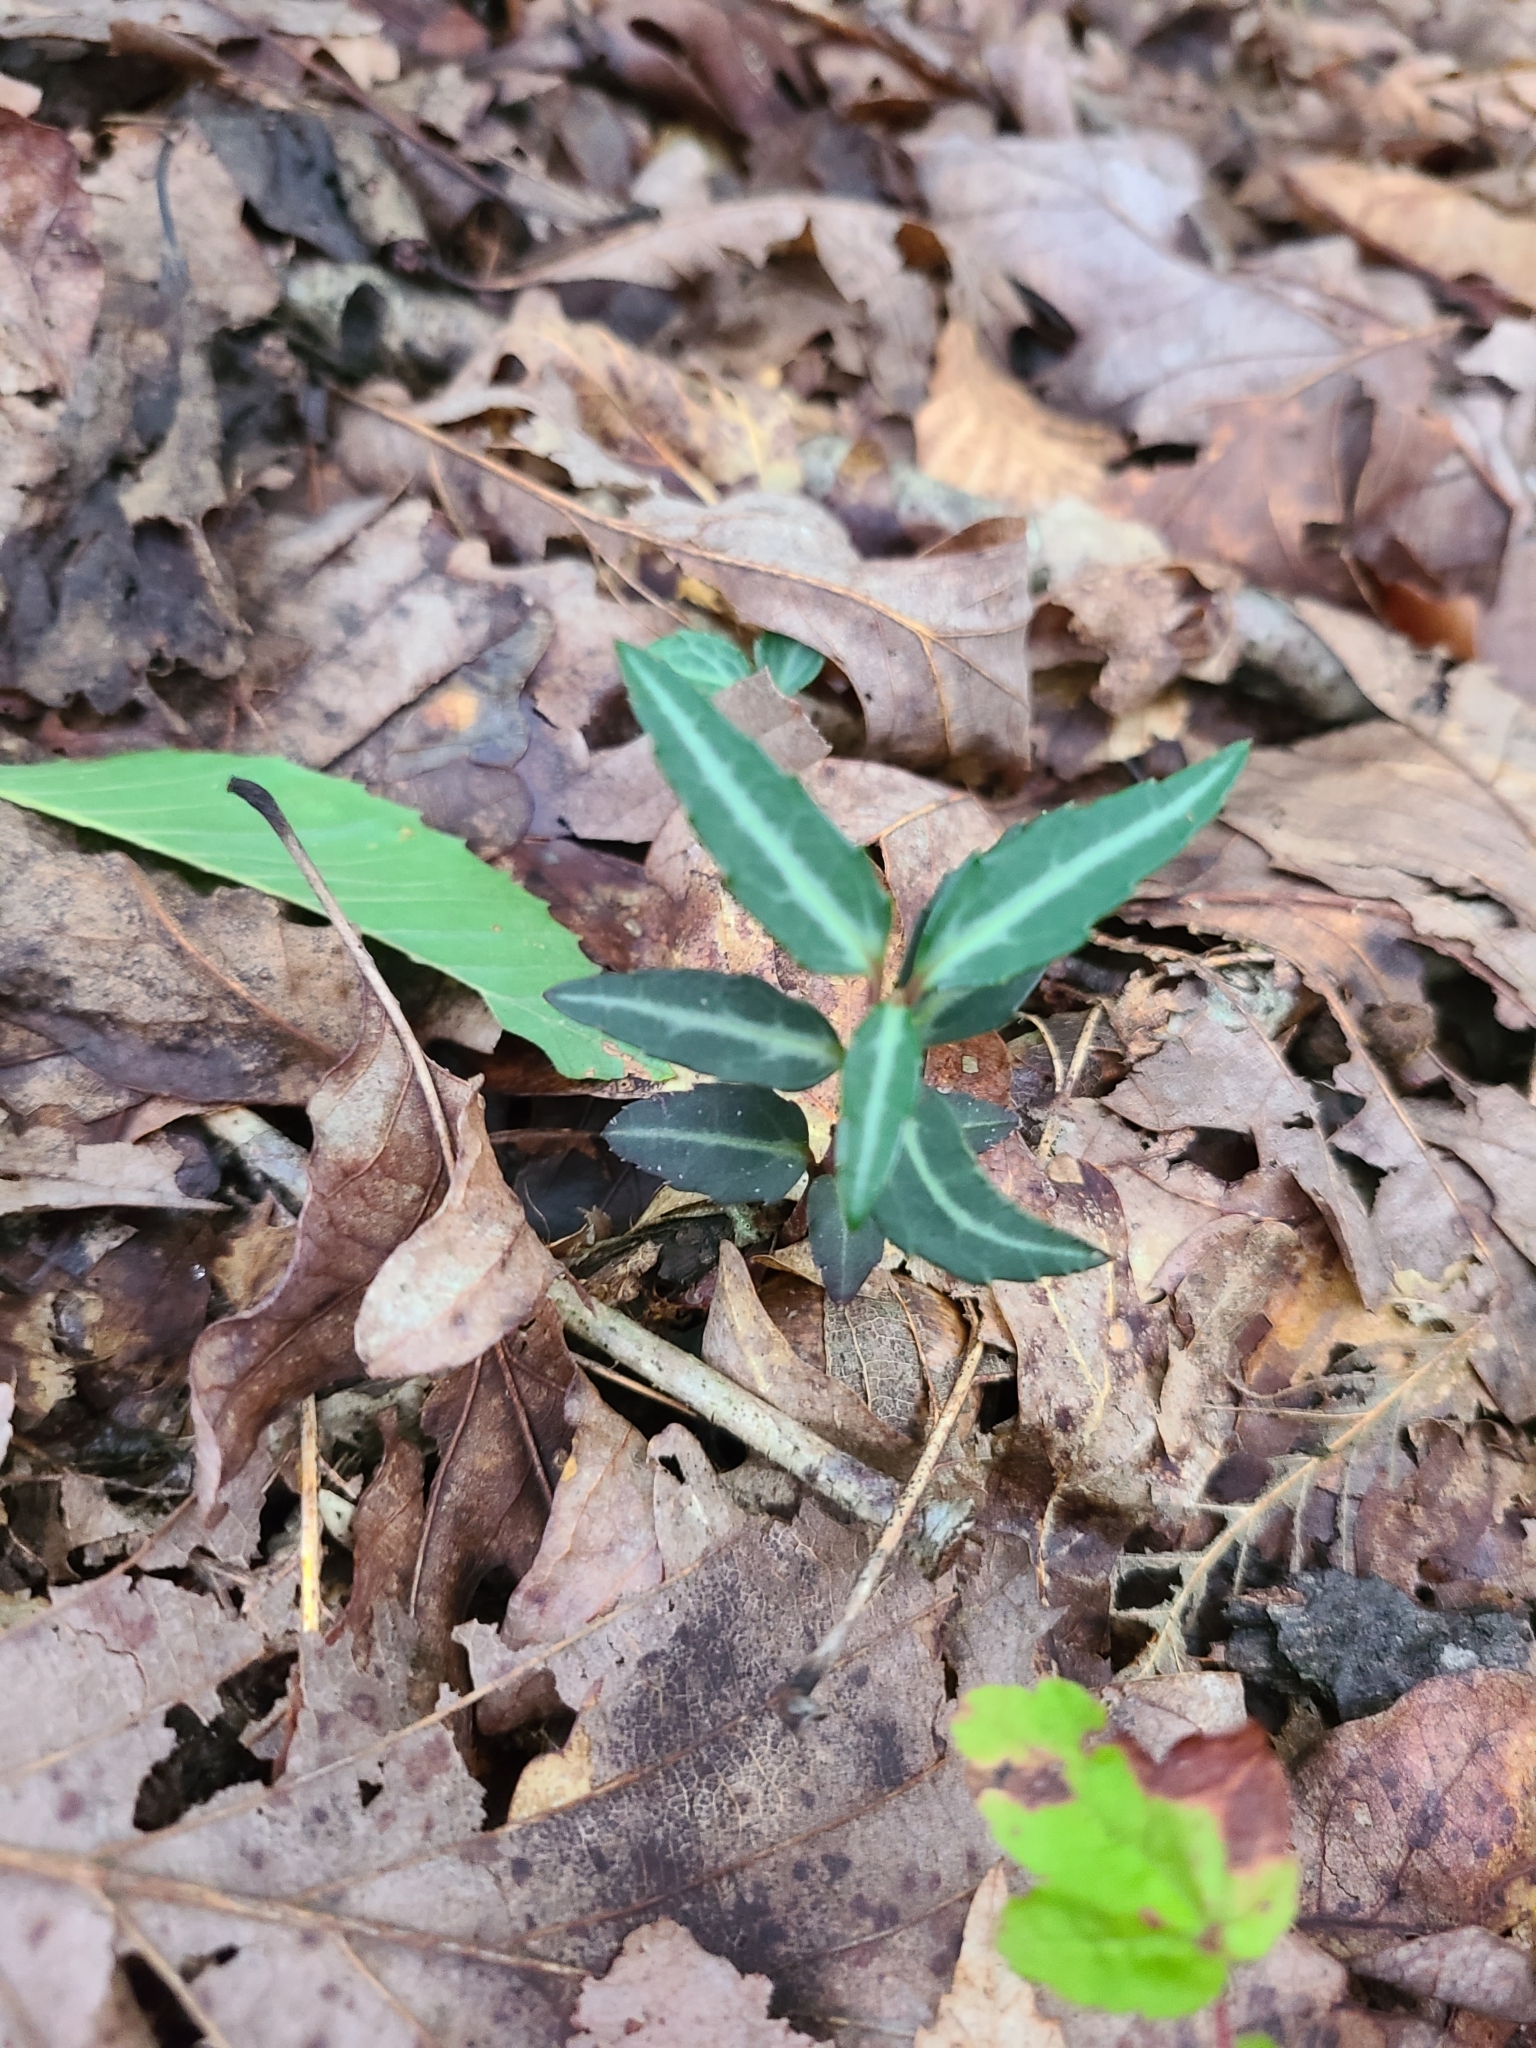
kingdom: Plantae
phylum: Tracheophyta
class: Magnoliopsida
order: Ericales
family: Ericaceae
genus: Chimaphila
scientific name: Chimaphila maculata
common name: Spotted pipsissewa
